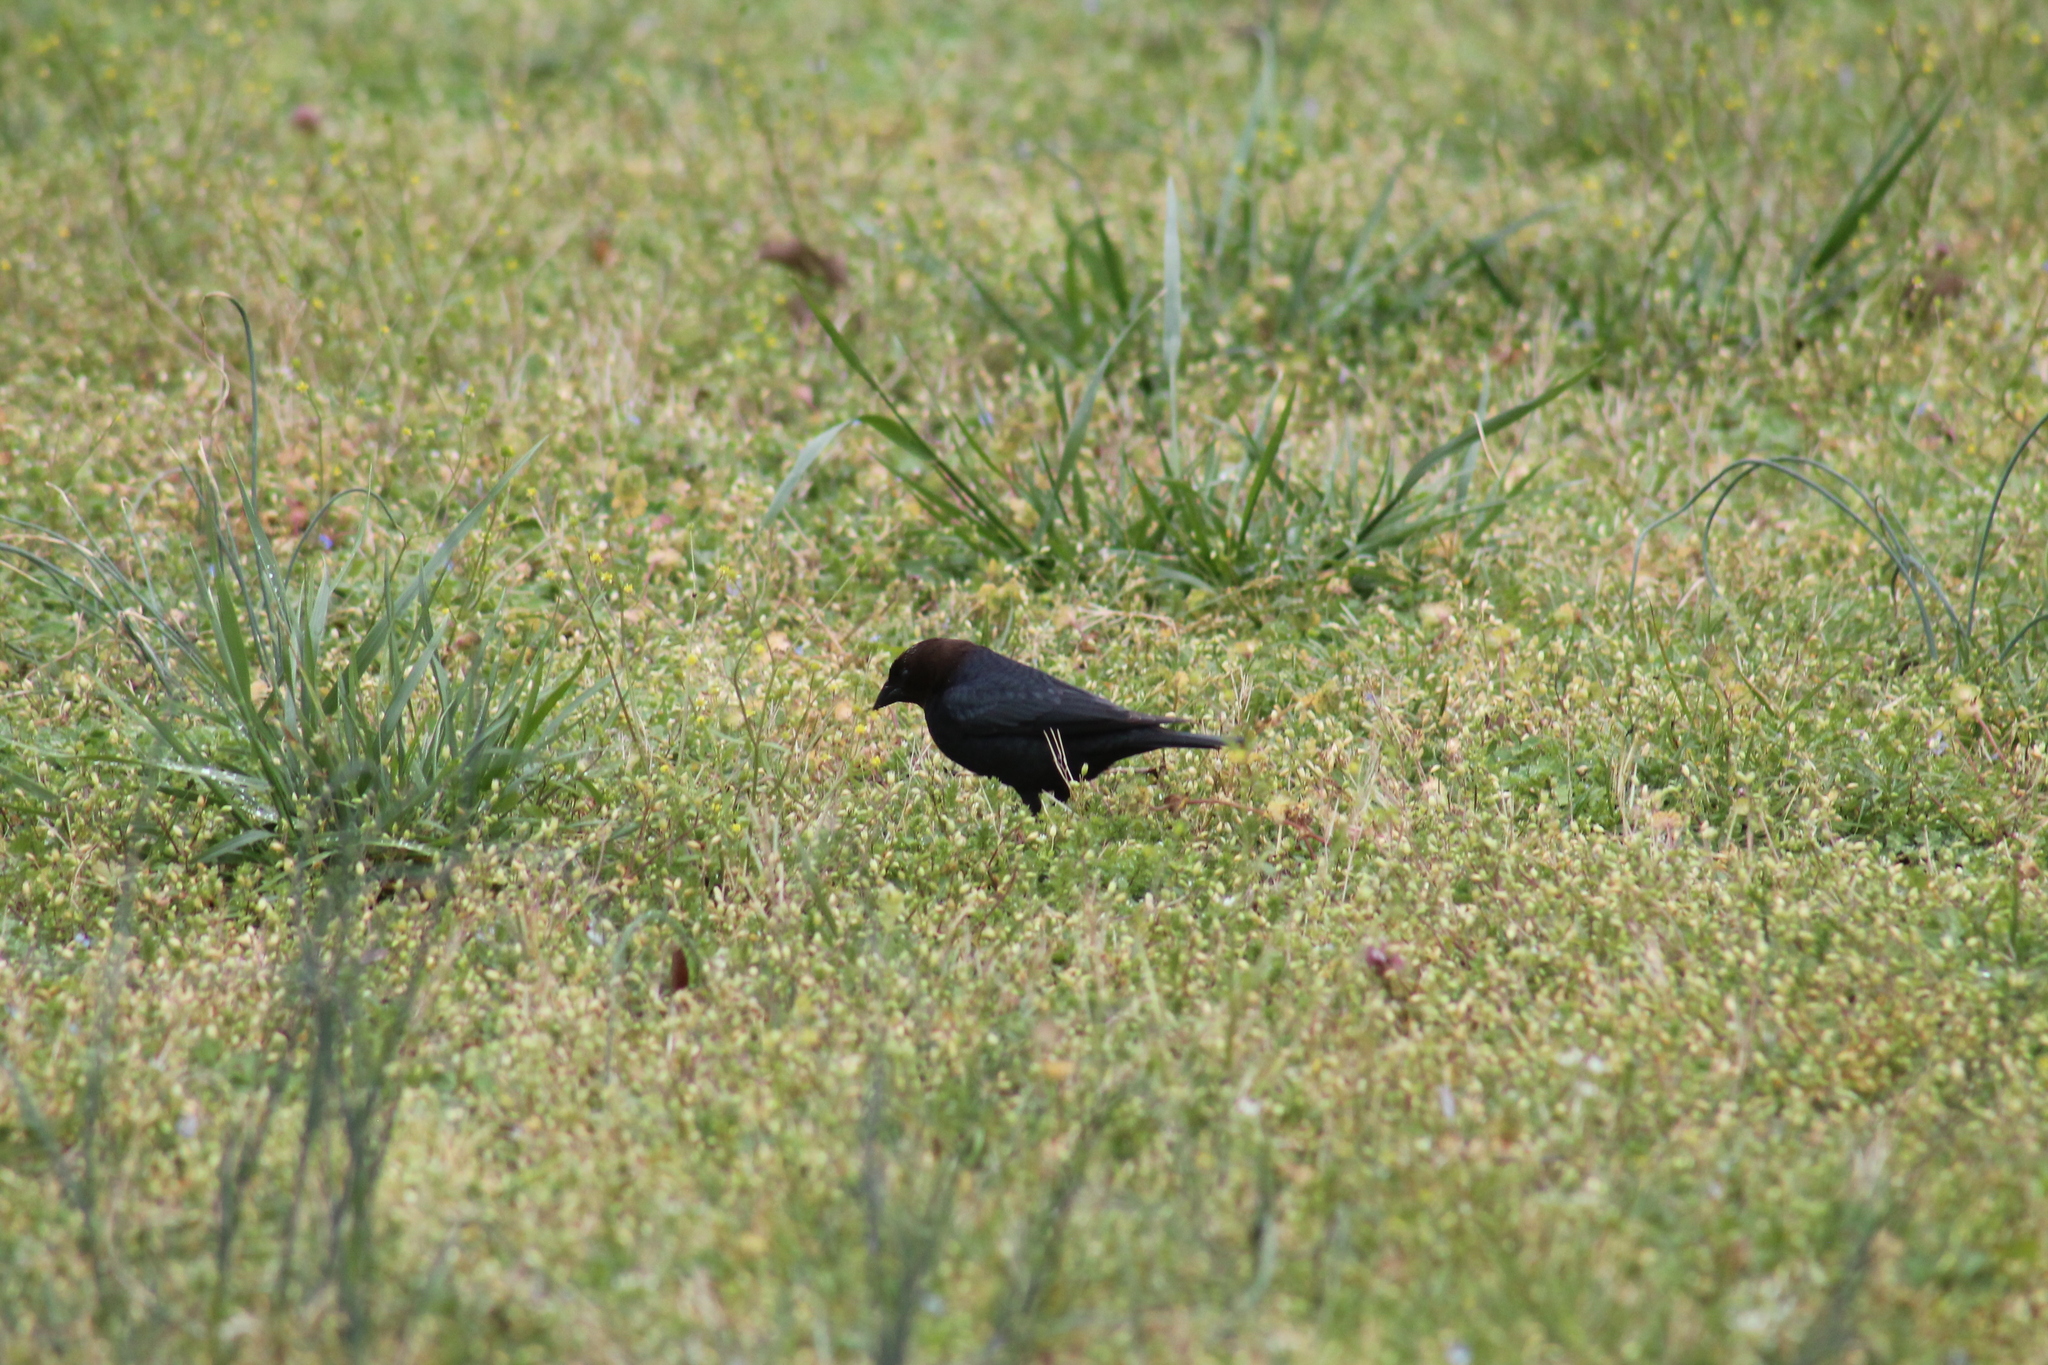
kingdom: Animalia
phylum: Chordata
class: Aves
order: Passeriformes
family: Icteridae
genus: Molothrus
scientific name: Molothrus ater
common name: Brown-headed cowbird
